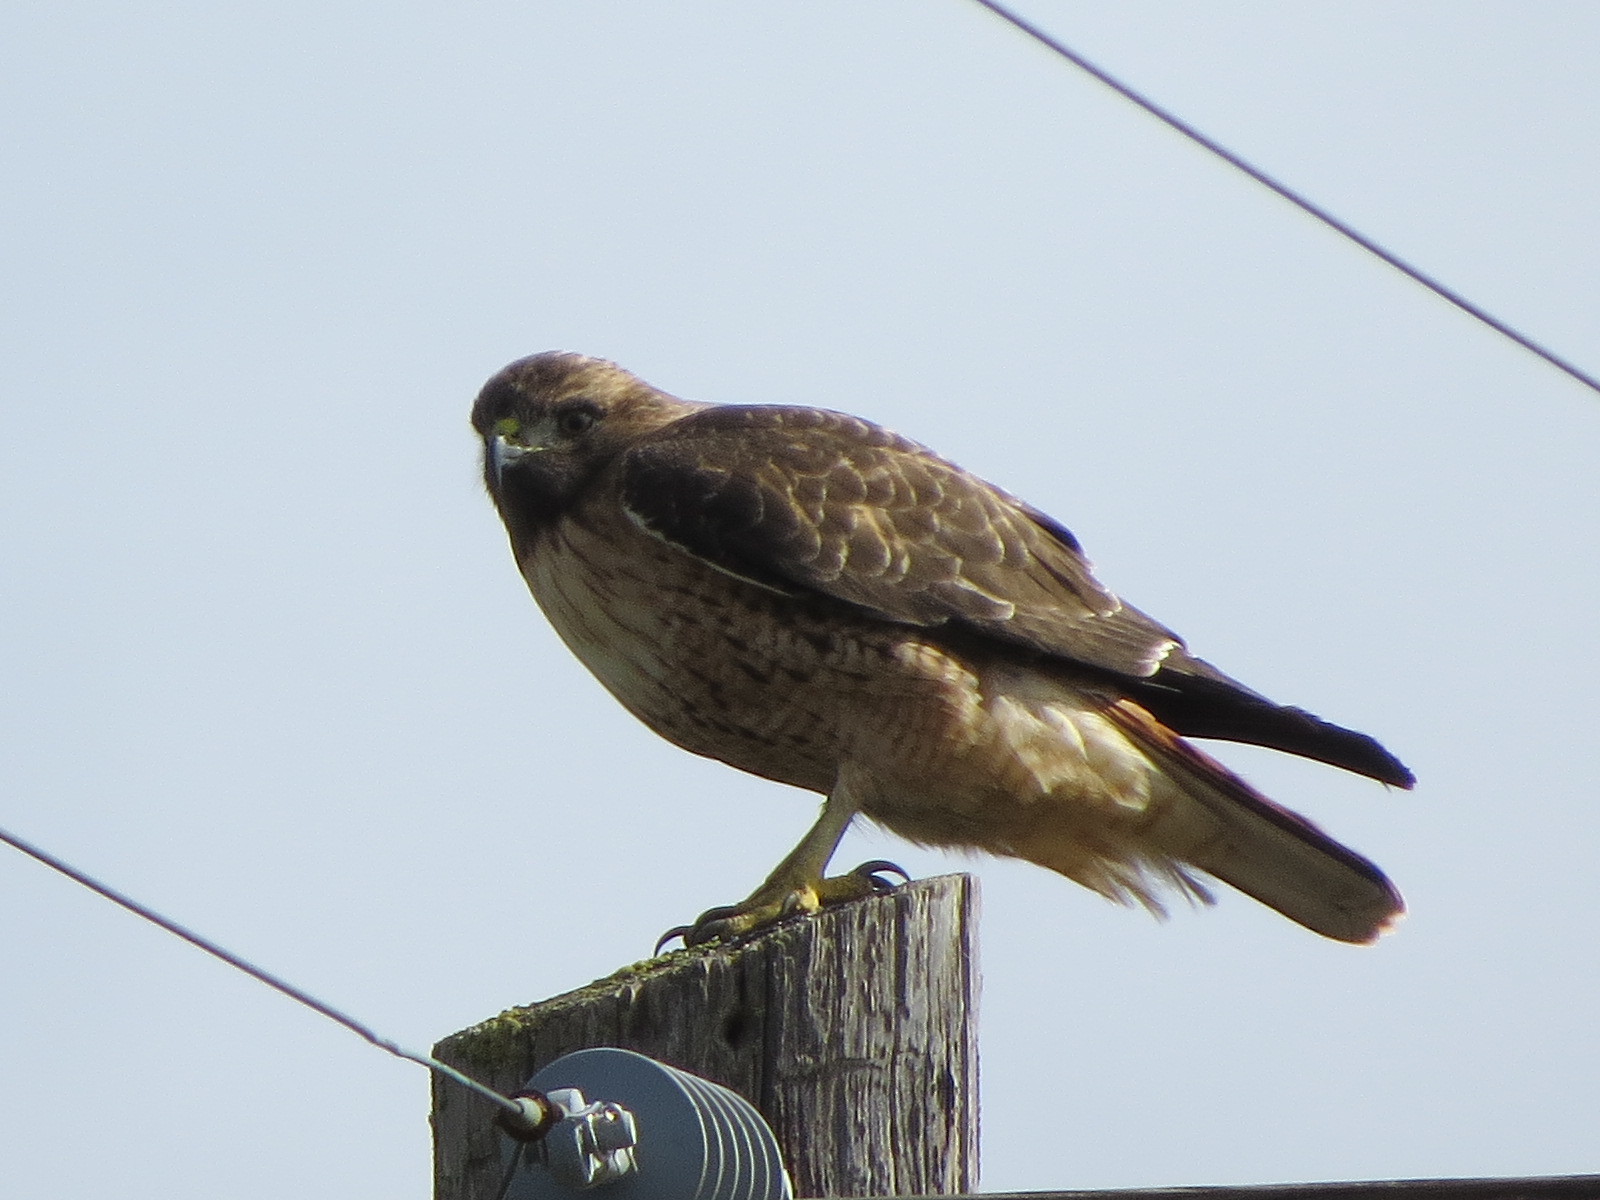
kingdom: Animalia
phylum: Chordata
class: Aves
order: Accipitriformes
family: Accipitridae
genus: Buteo
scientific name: Buteo jamaicensis
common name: Red-tailed hawk
